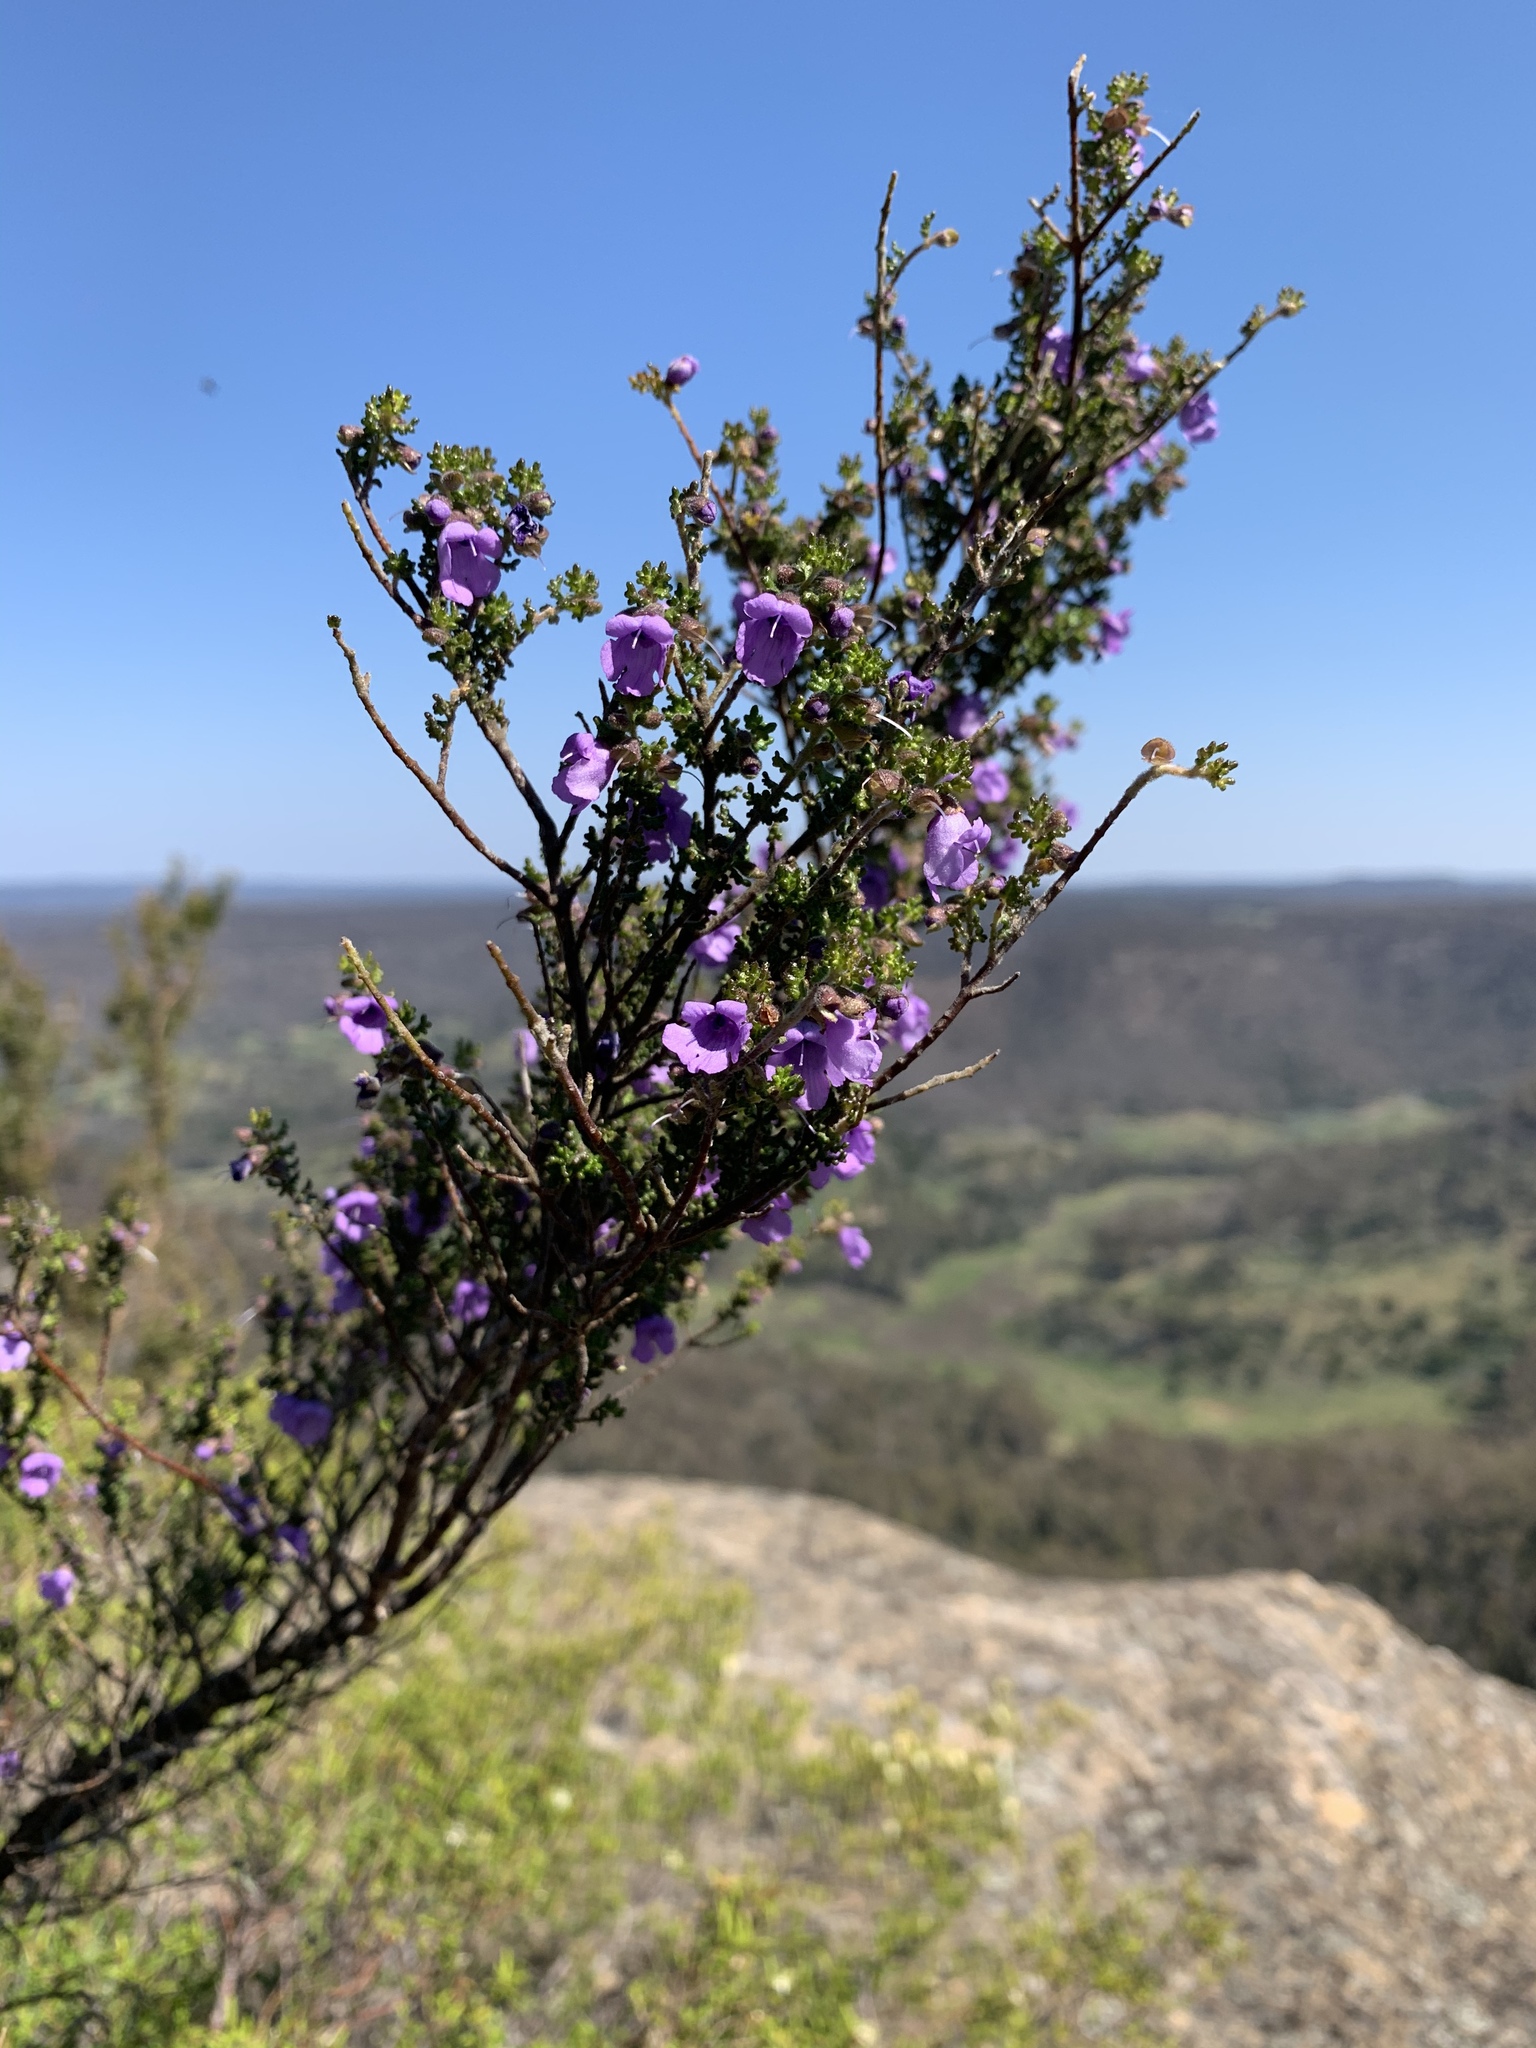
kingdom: Plantae
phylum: Tracheophyta
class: Magnoliopsida
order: Lamiales
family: Lamiaceae
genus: Prostanthera
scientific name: Prostanthera rugosa
